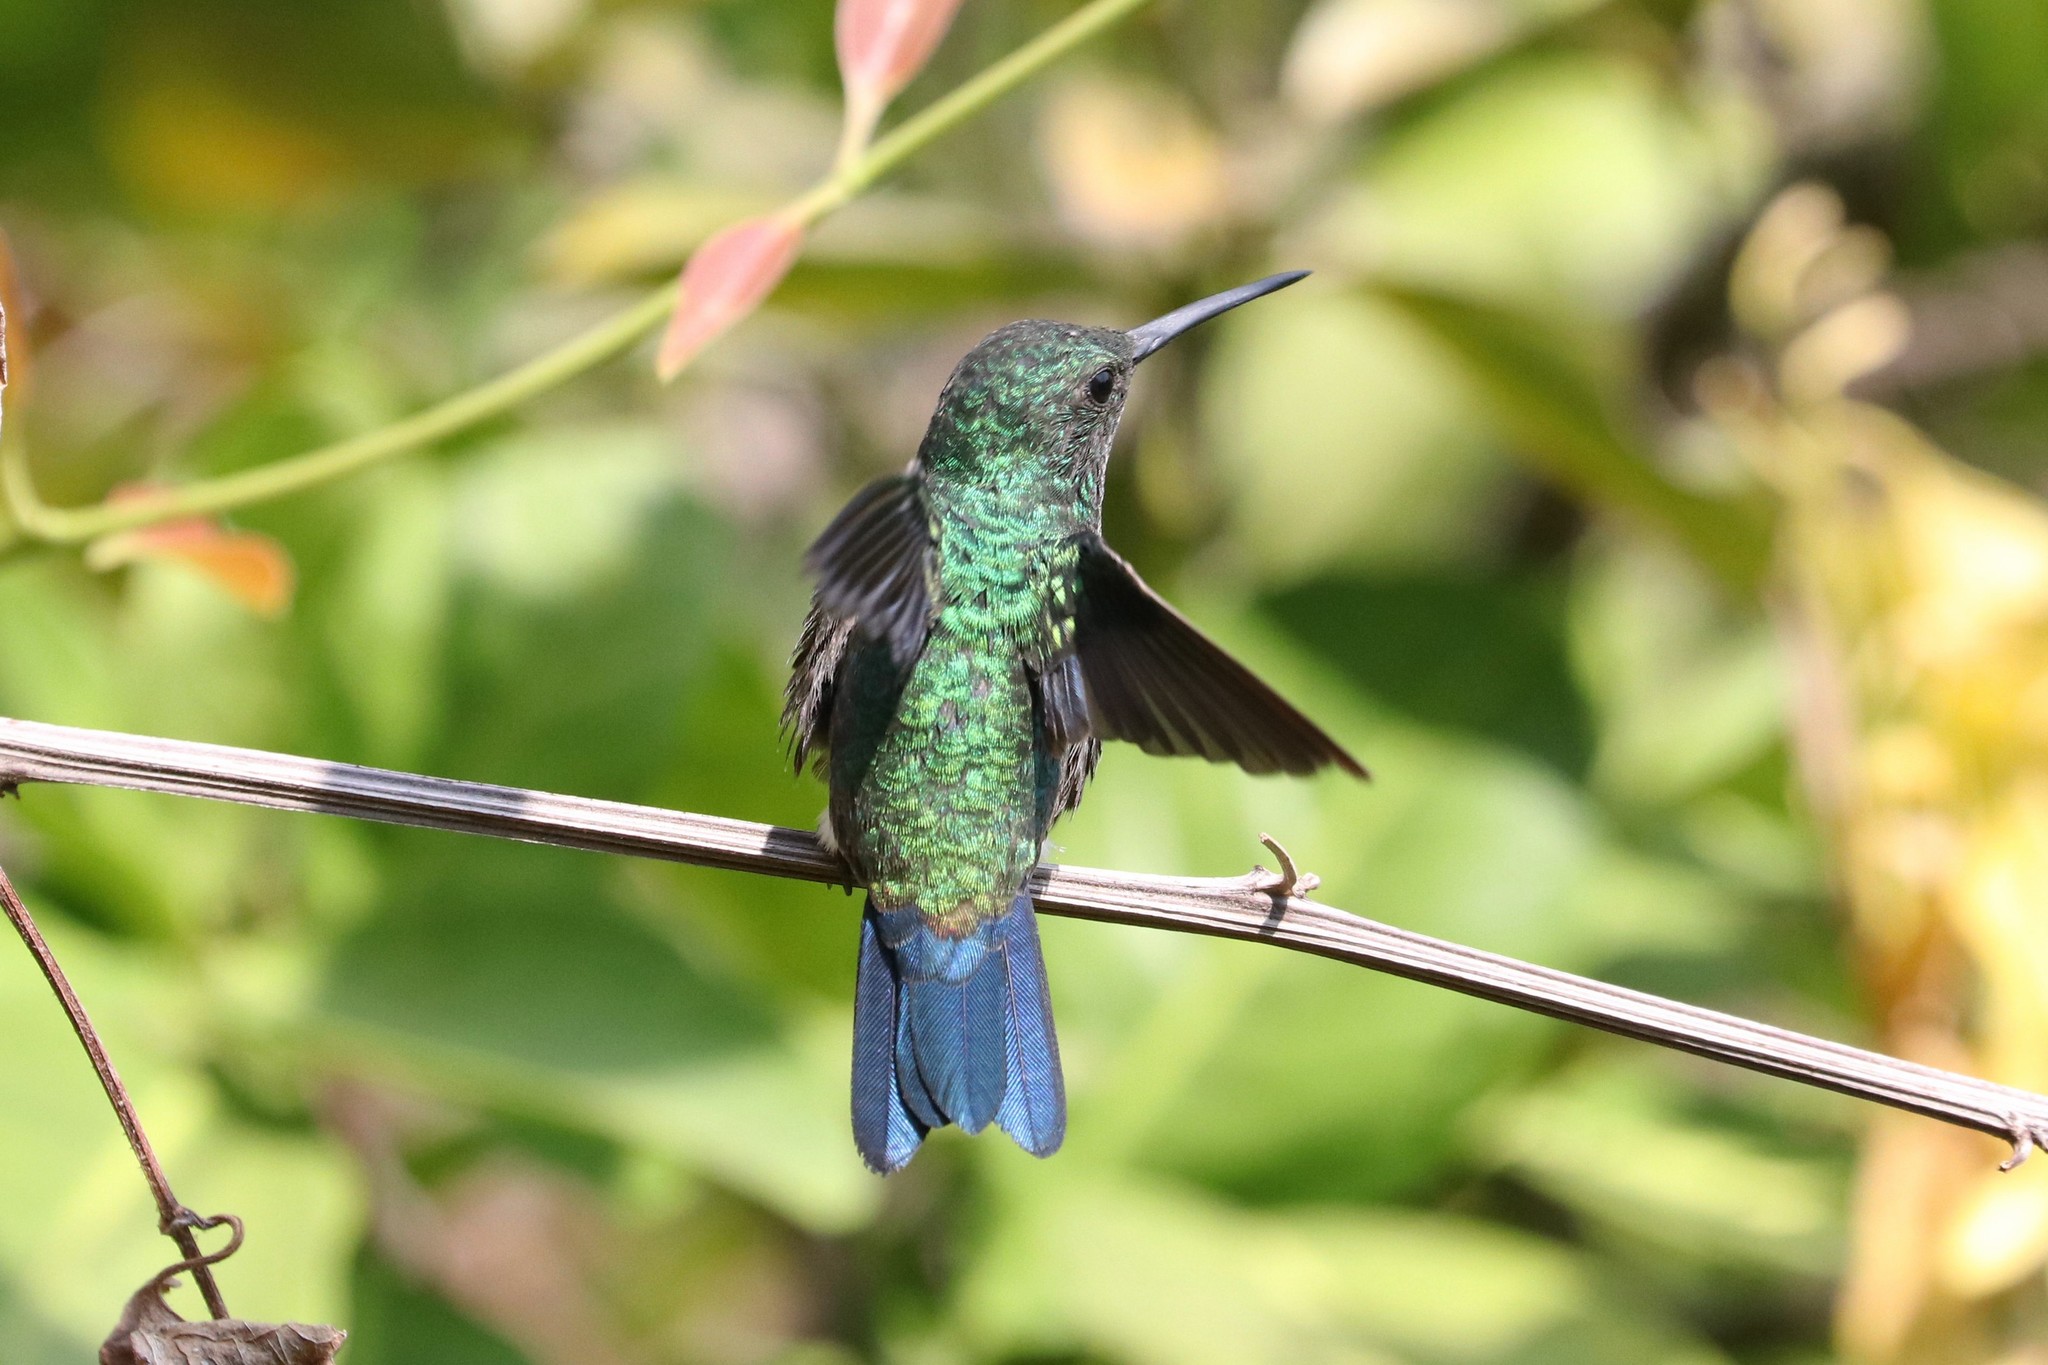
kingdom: Animalia
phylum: Chordata
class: Aves
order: Apodiformes
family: Trochilidae
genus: Saucerottia
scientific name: Saucerottia saucerottei
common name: Steely-vented hummingbird
